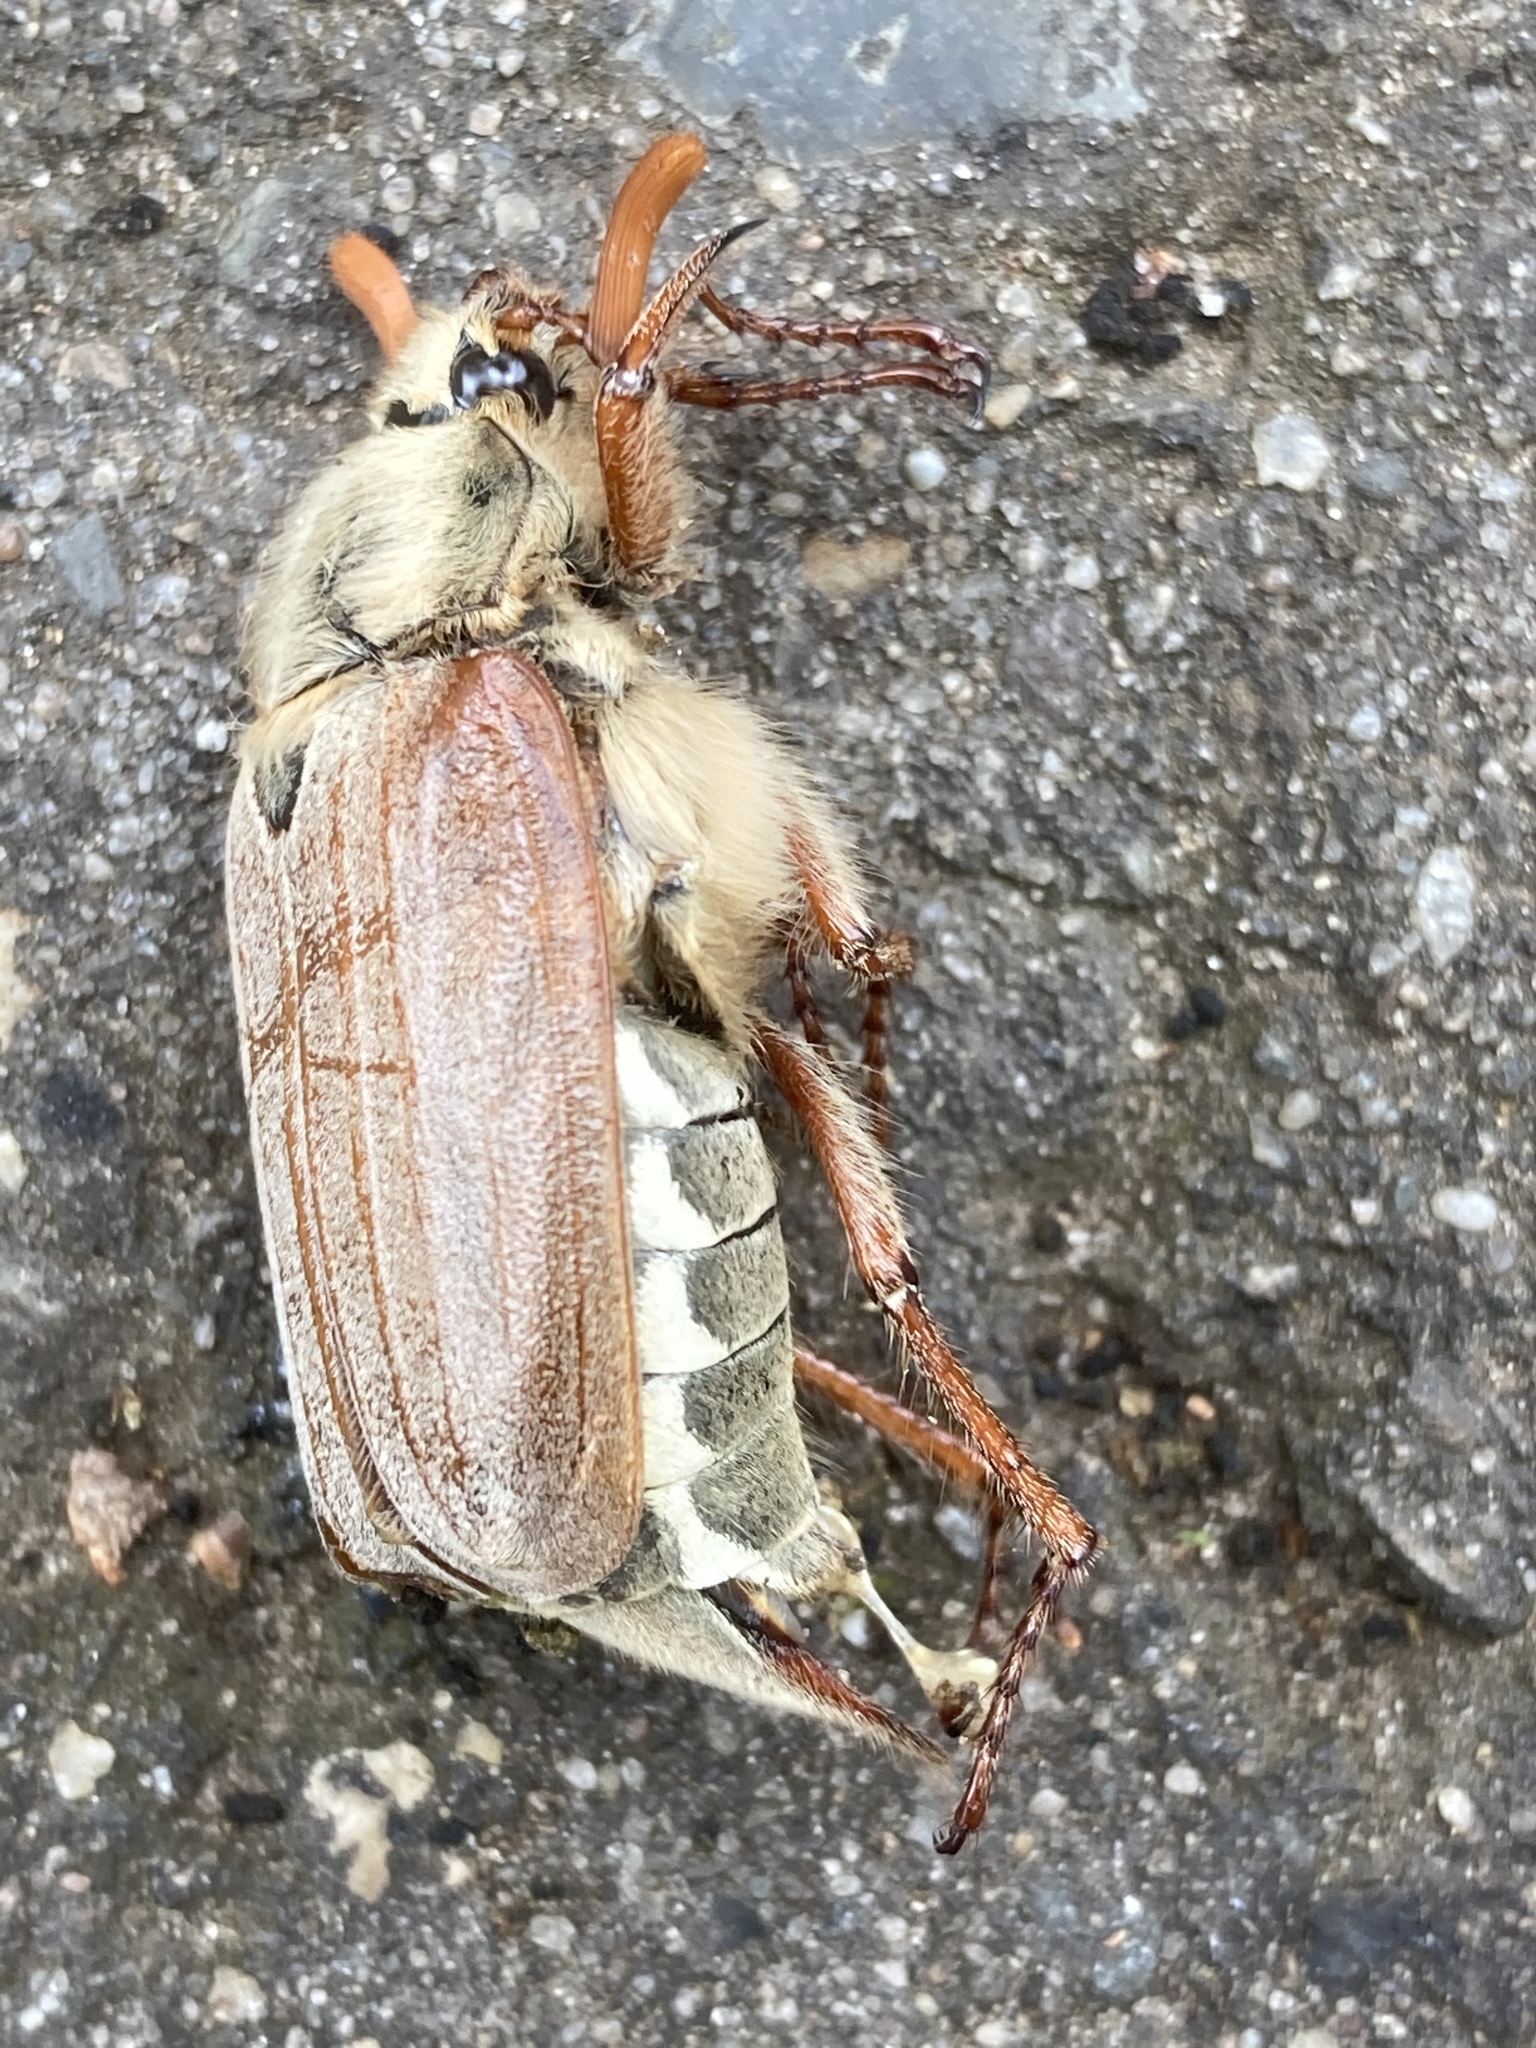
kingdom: Animalia
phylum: Arthropoda
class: Insecta
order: Coleoptera
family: Scarabaeidae
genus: Melolontha
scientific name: Melolontha melolontha
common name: Cockchafer maybeetle
